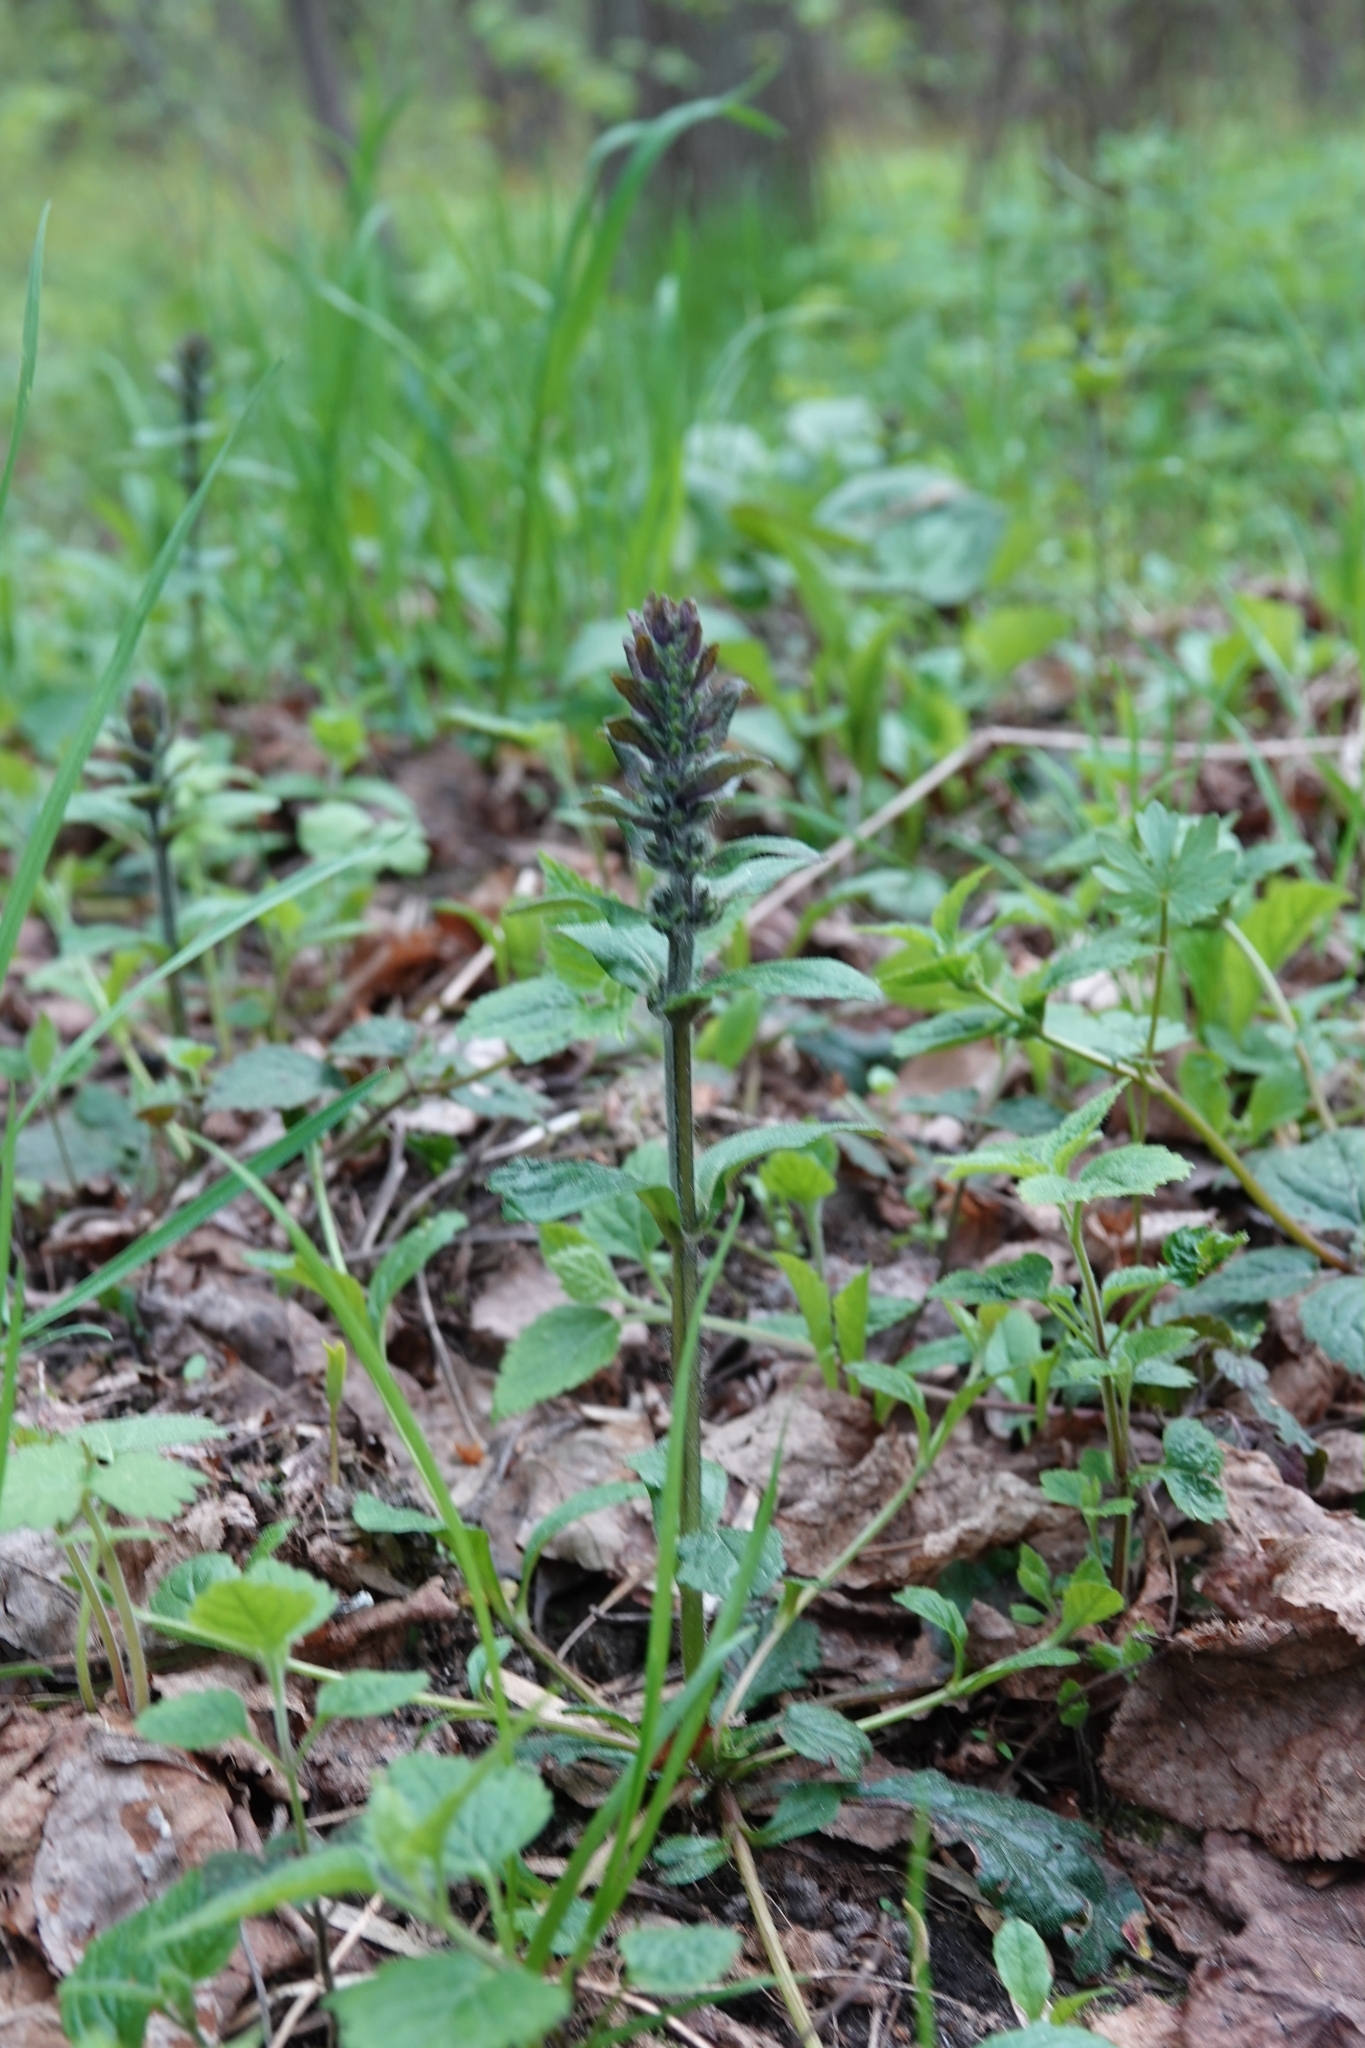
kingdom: Plantae
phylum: Tracheophyta
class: Magnoliopsida
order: Lamiales
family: Lamiaceae
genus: Ajuga
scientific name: Ajuga reptans
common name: Bugle
